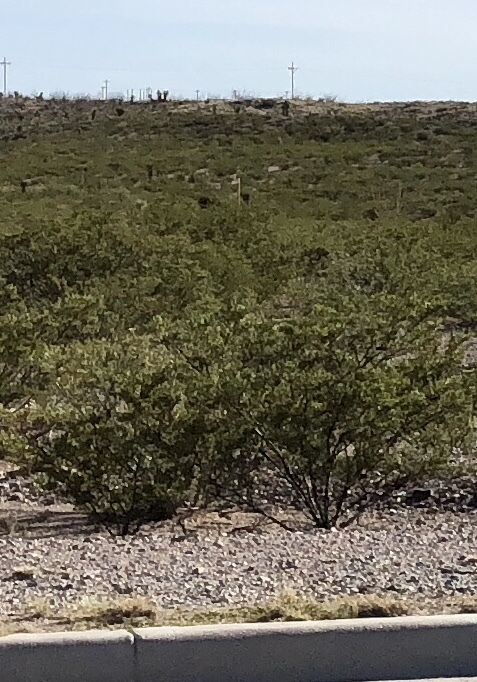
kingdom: Plantae
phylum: Tracheophyta
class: Magnoliopsida
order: Zygophyllales
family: Zygophyllaceae
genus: Larrea
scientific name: Larrea tridentata
